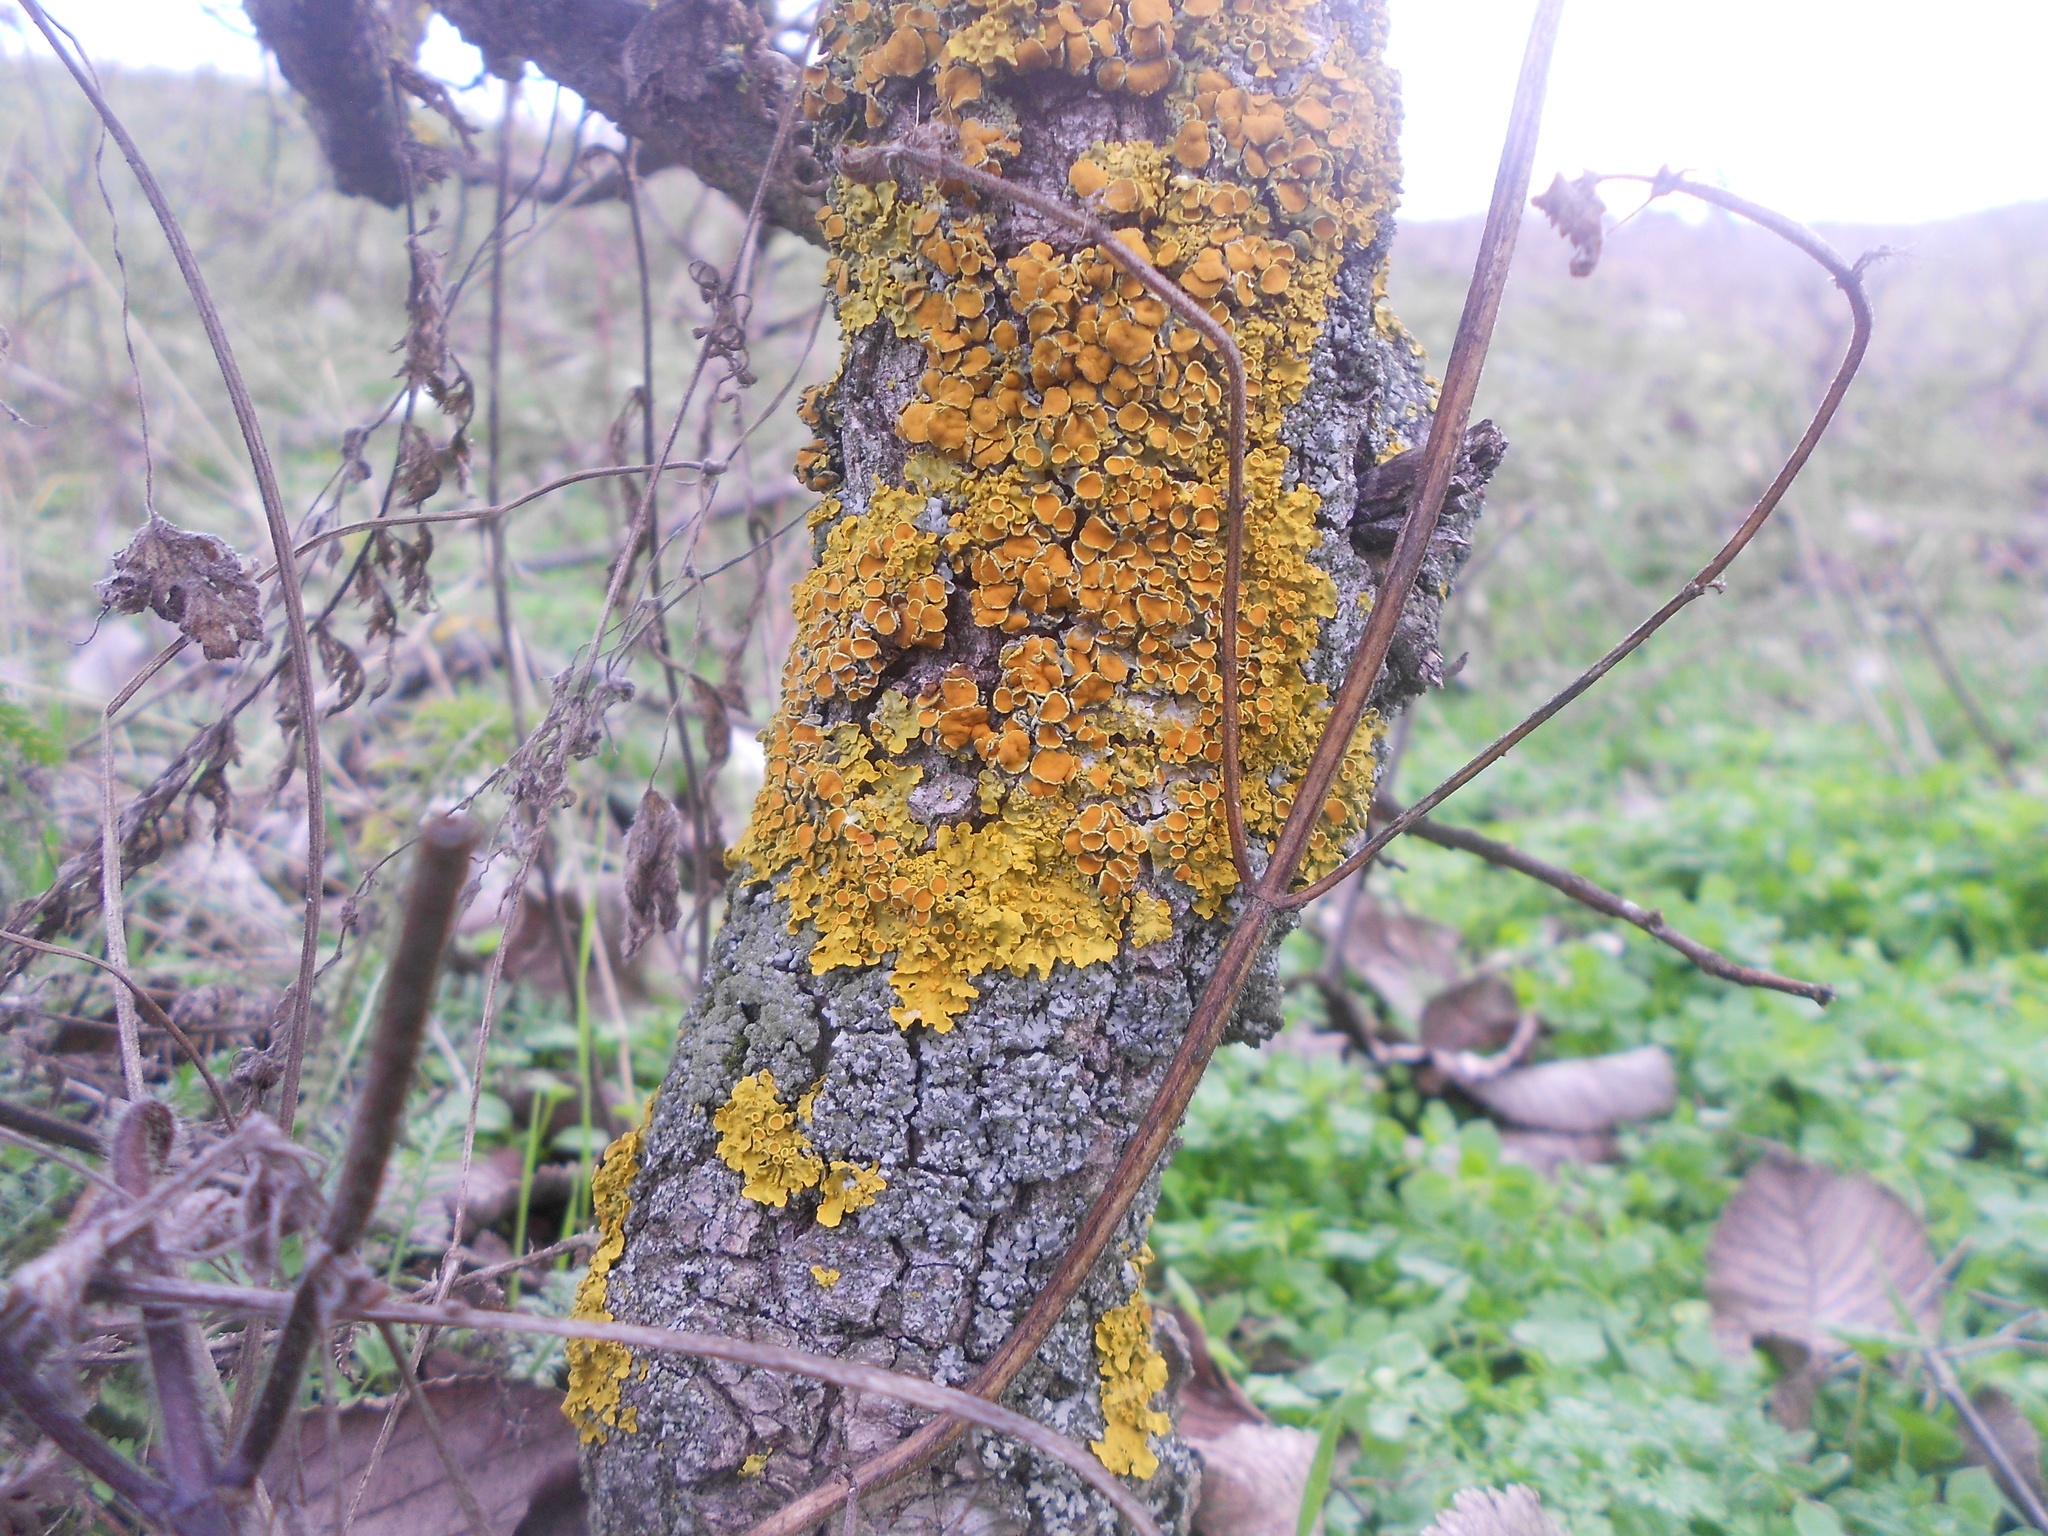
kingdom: Fungi
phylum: Ascomycota
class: Lecanoromycetes
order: Teloschistales
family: Teloschistaceae
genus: Xanthoria
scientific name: Xanthoria parietina
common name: Common orange lichen
